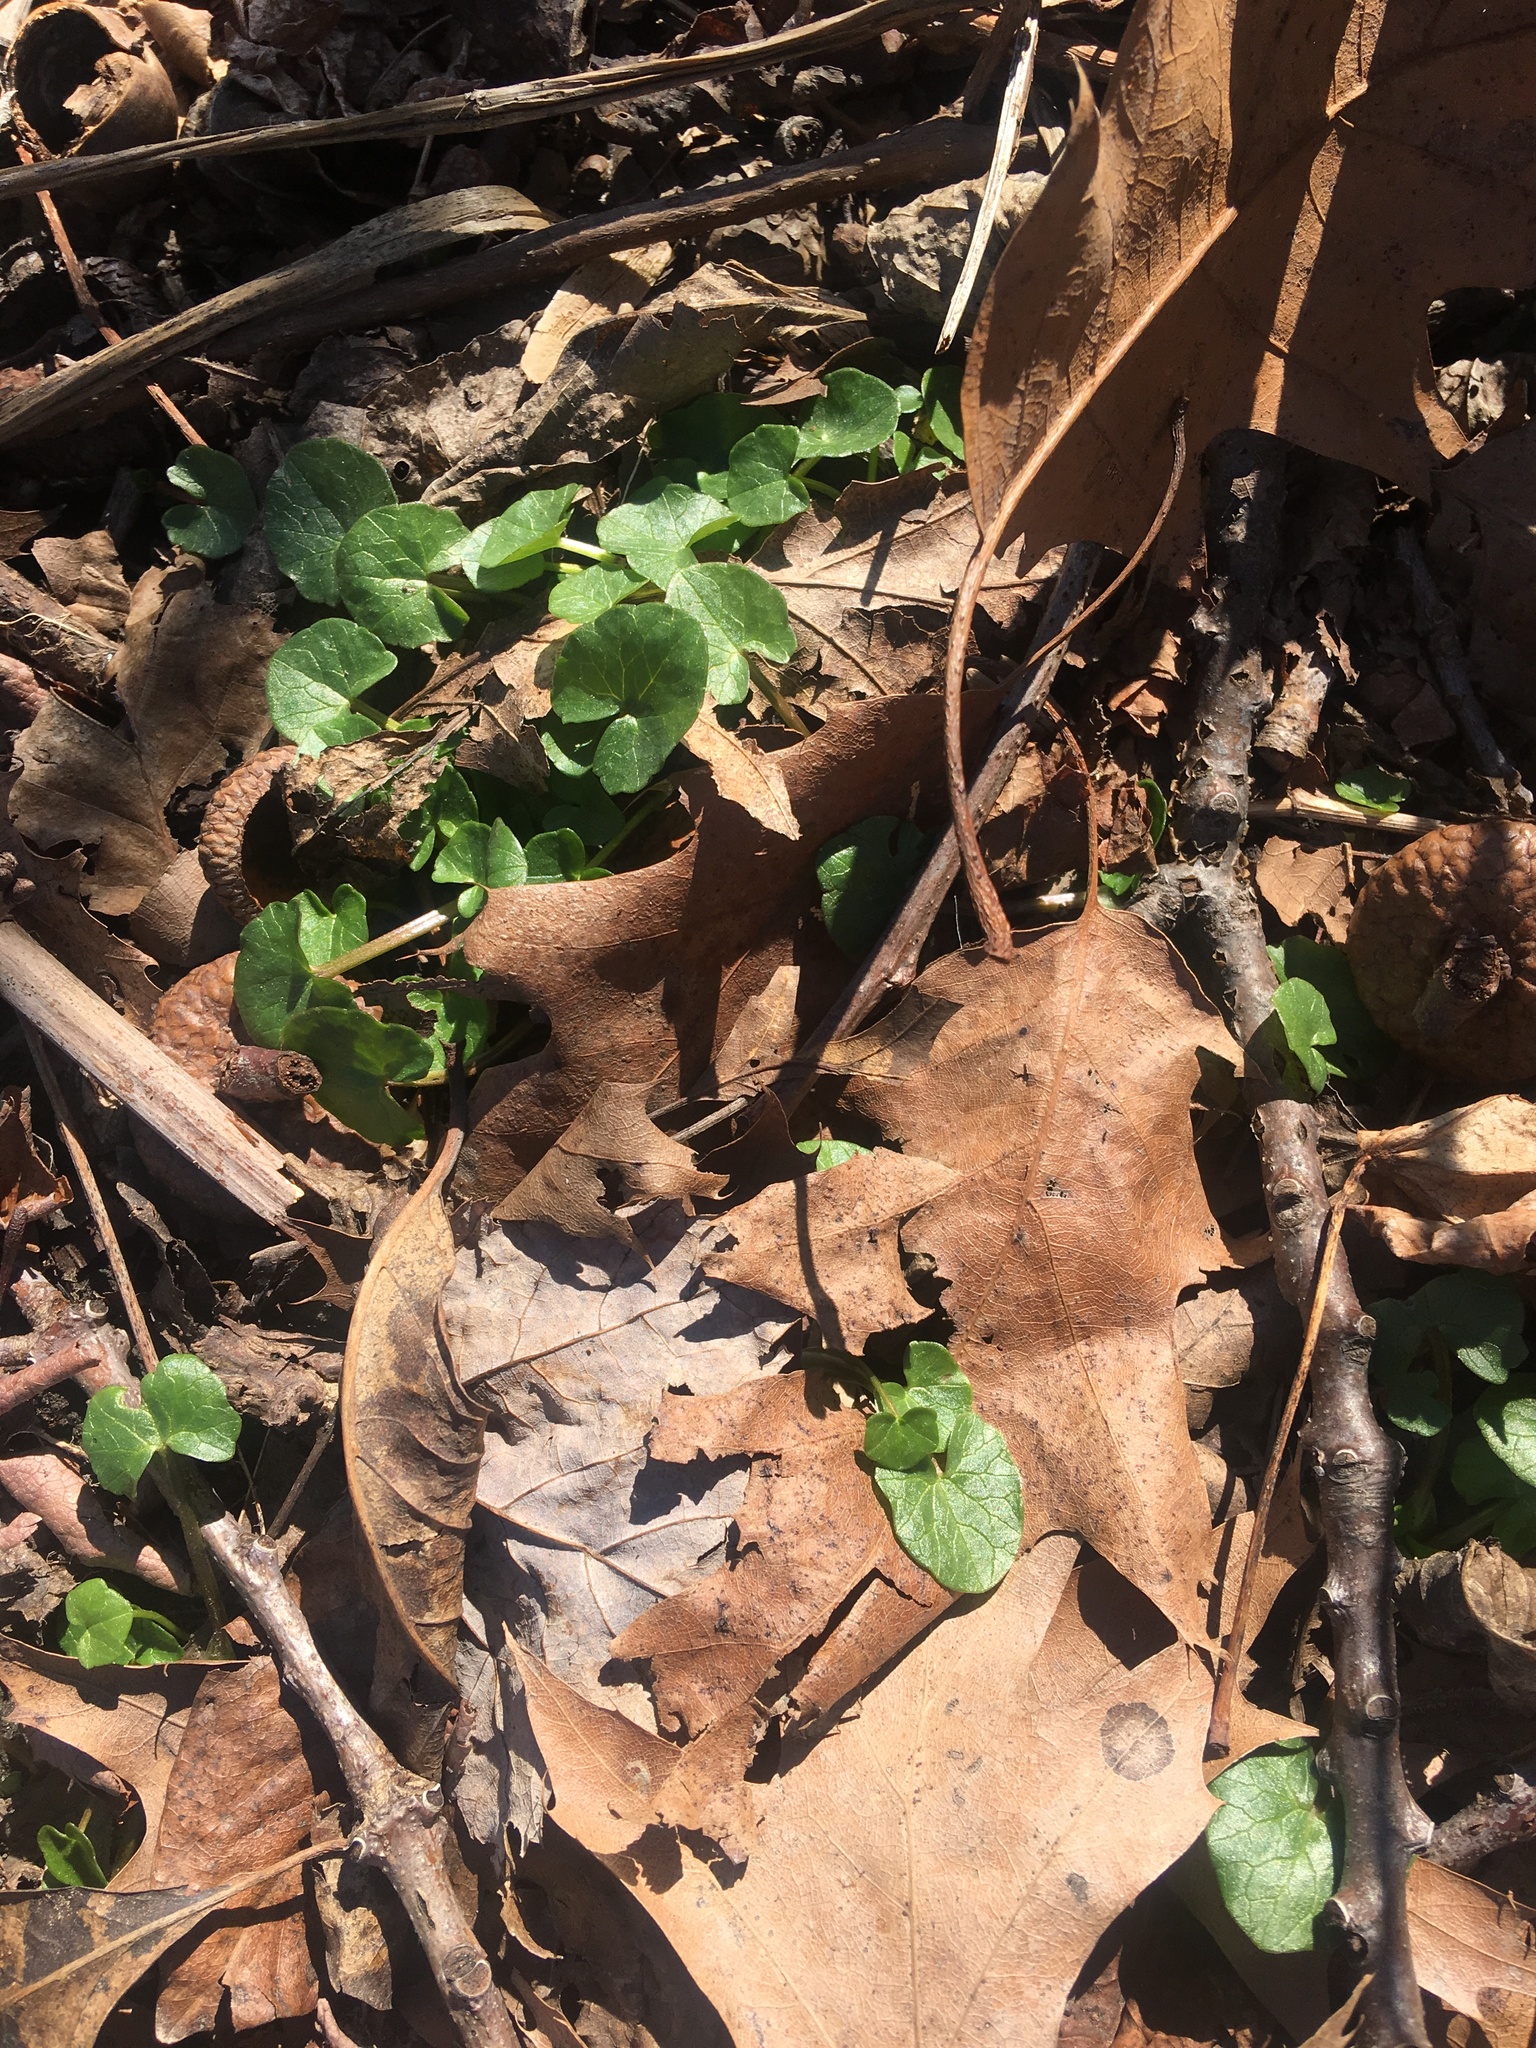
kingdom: Plantae
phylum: Tracheophyta
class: Magnoliopsida
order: Ranunculales
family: Ranunculaceae
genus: Ficaria
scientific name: Ficaria verna
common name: Lesser celandine
